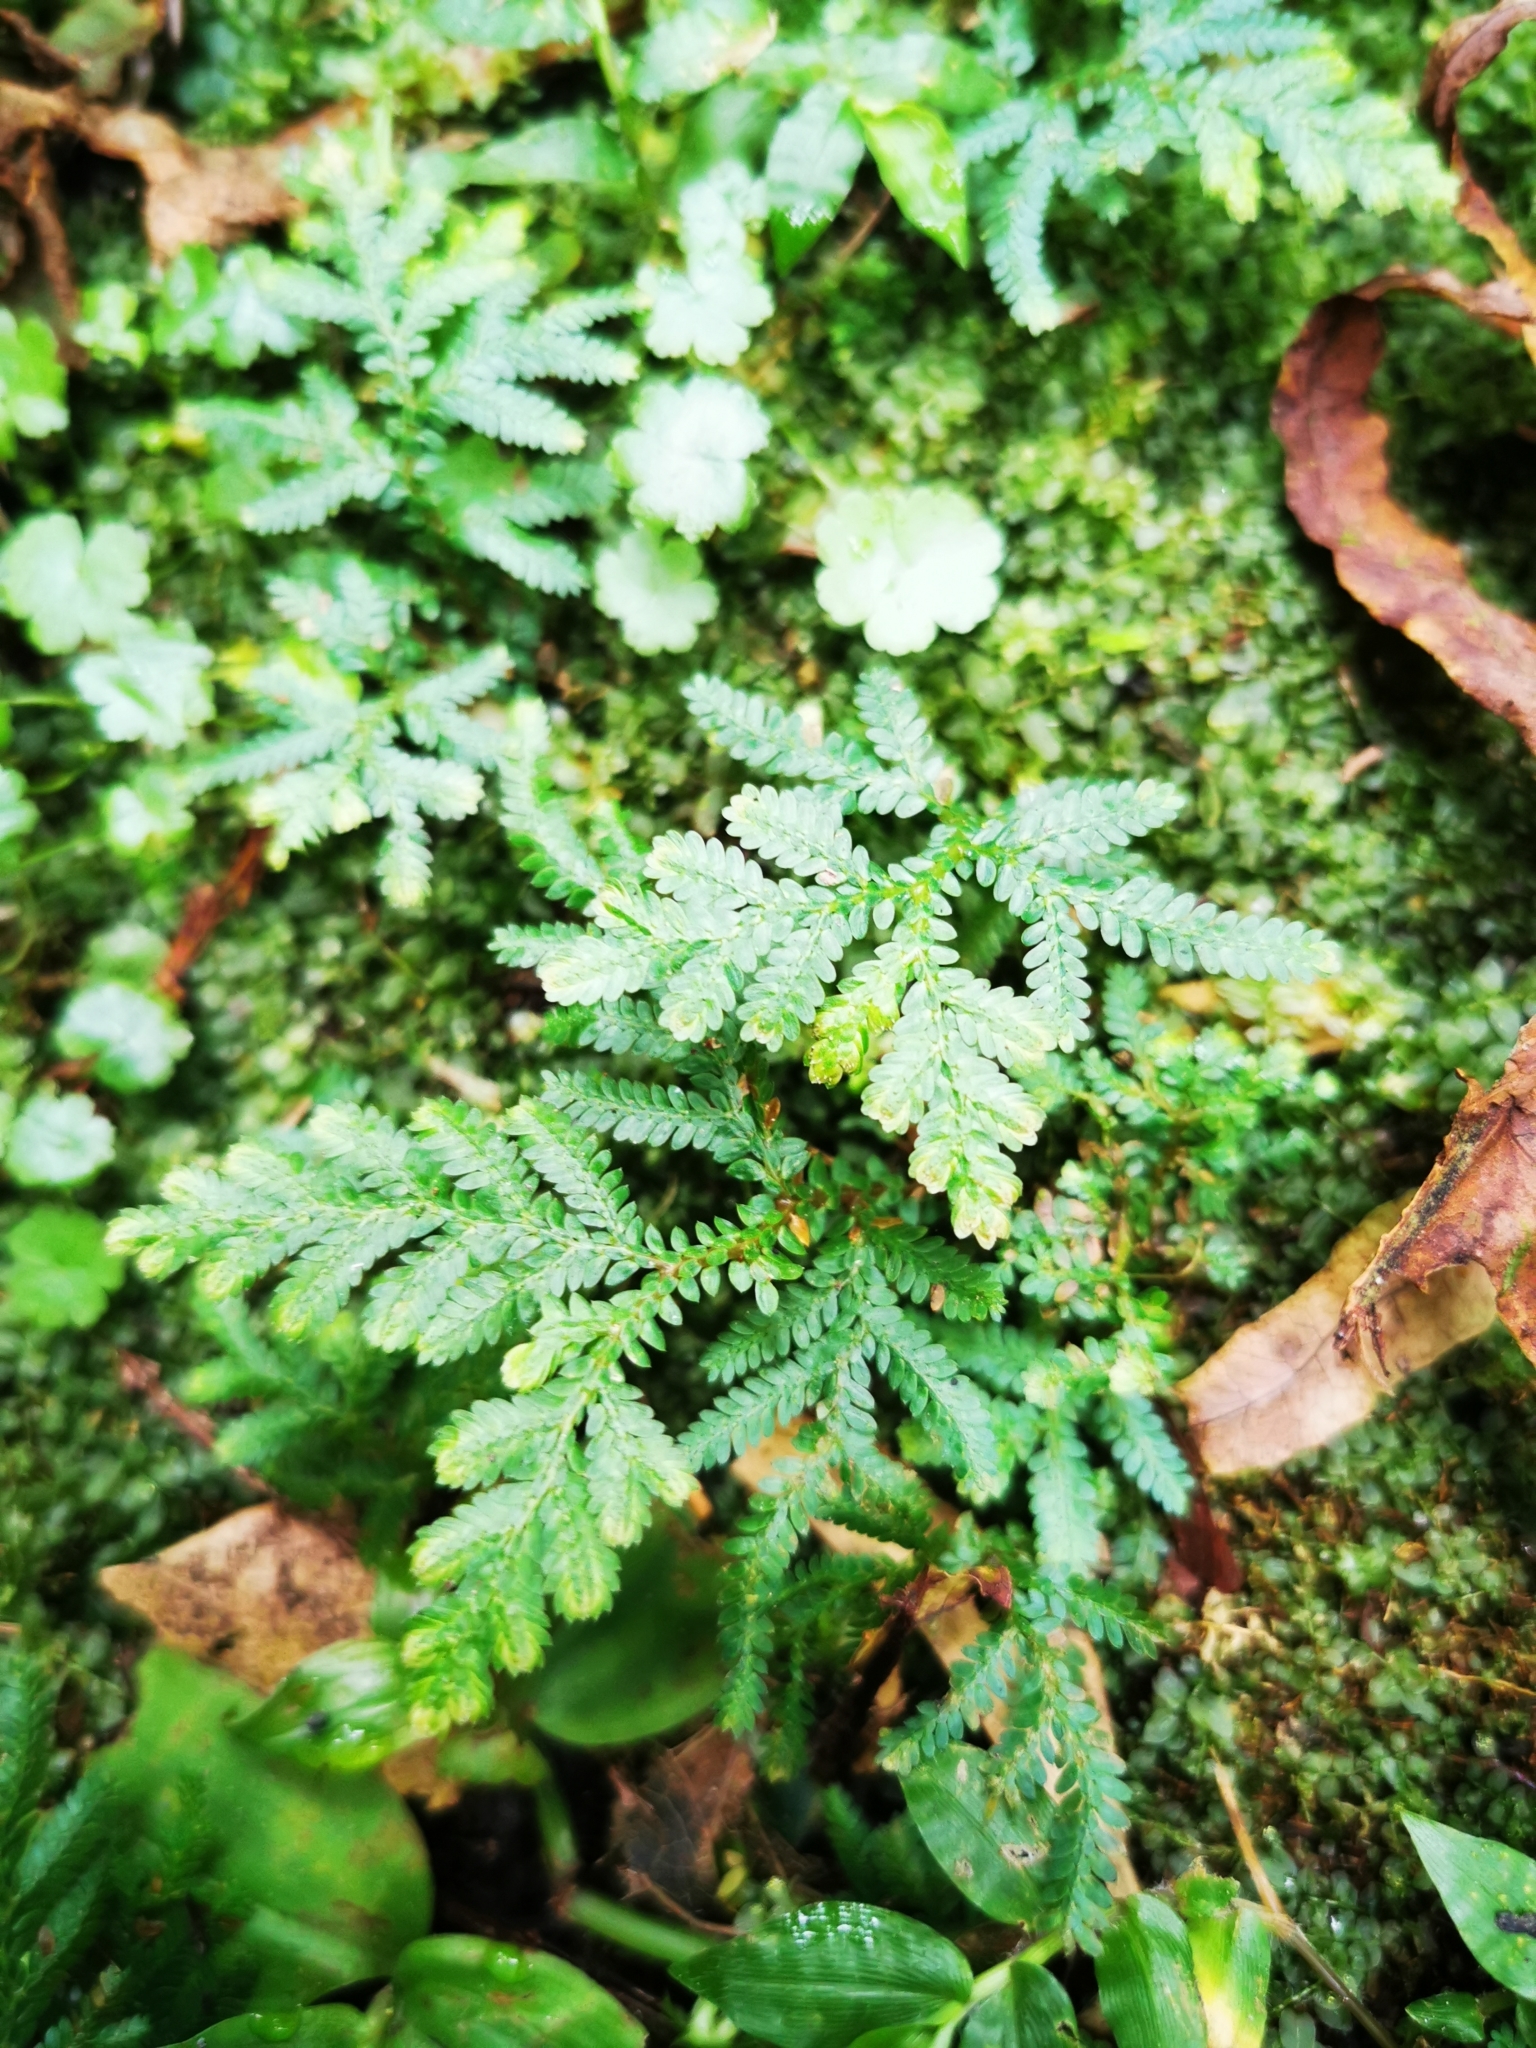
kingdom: Plantae
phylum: Tracheophyta
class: Lycopodiopsida
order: Selaginellales
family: Selaginellaceae
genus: Selaginella
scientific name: Selaginella delicatula
